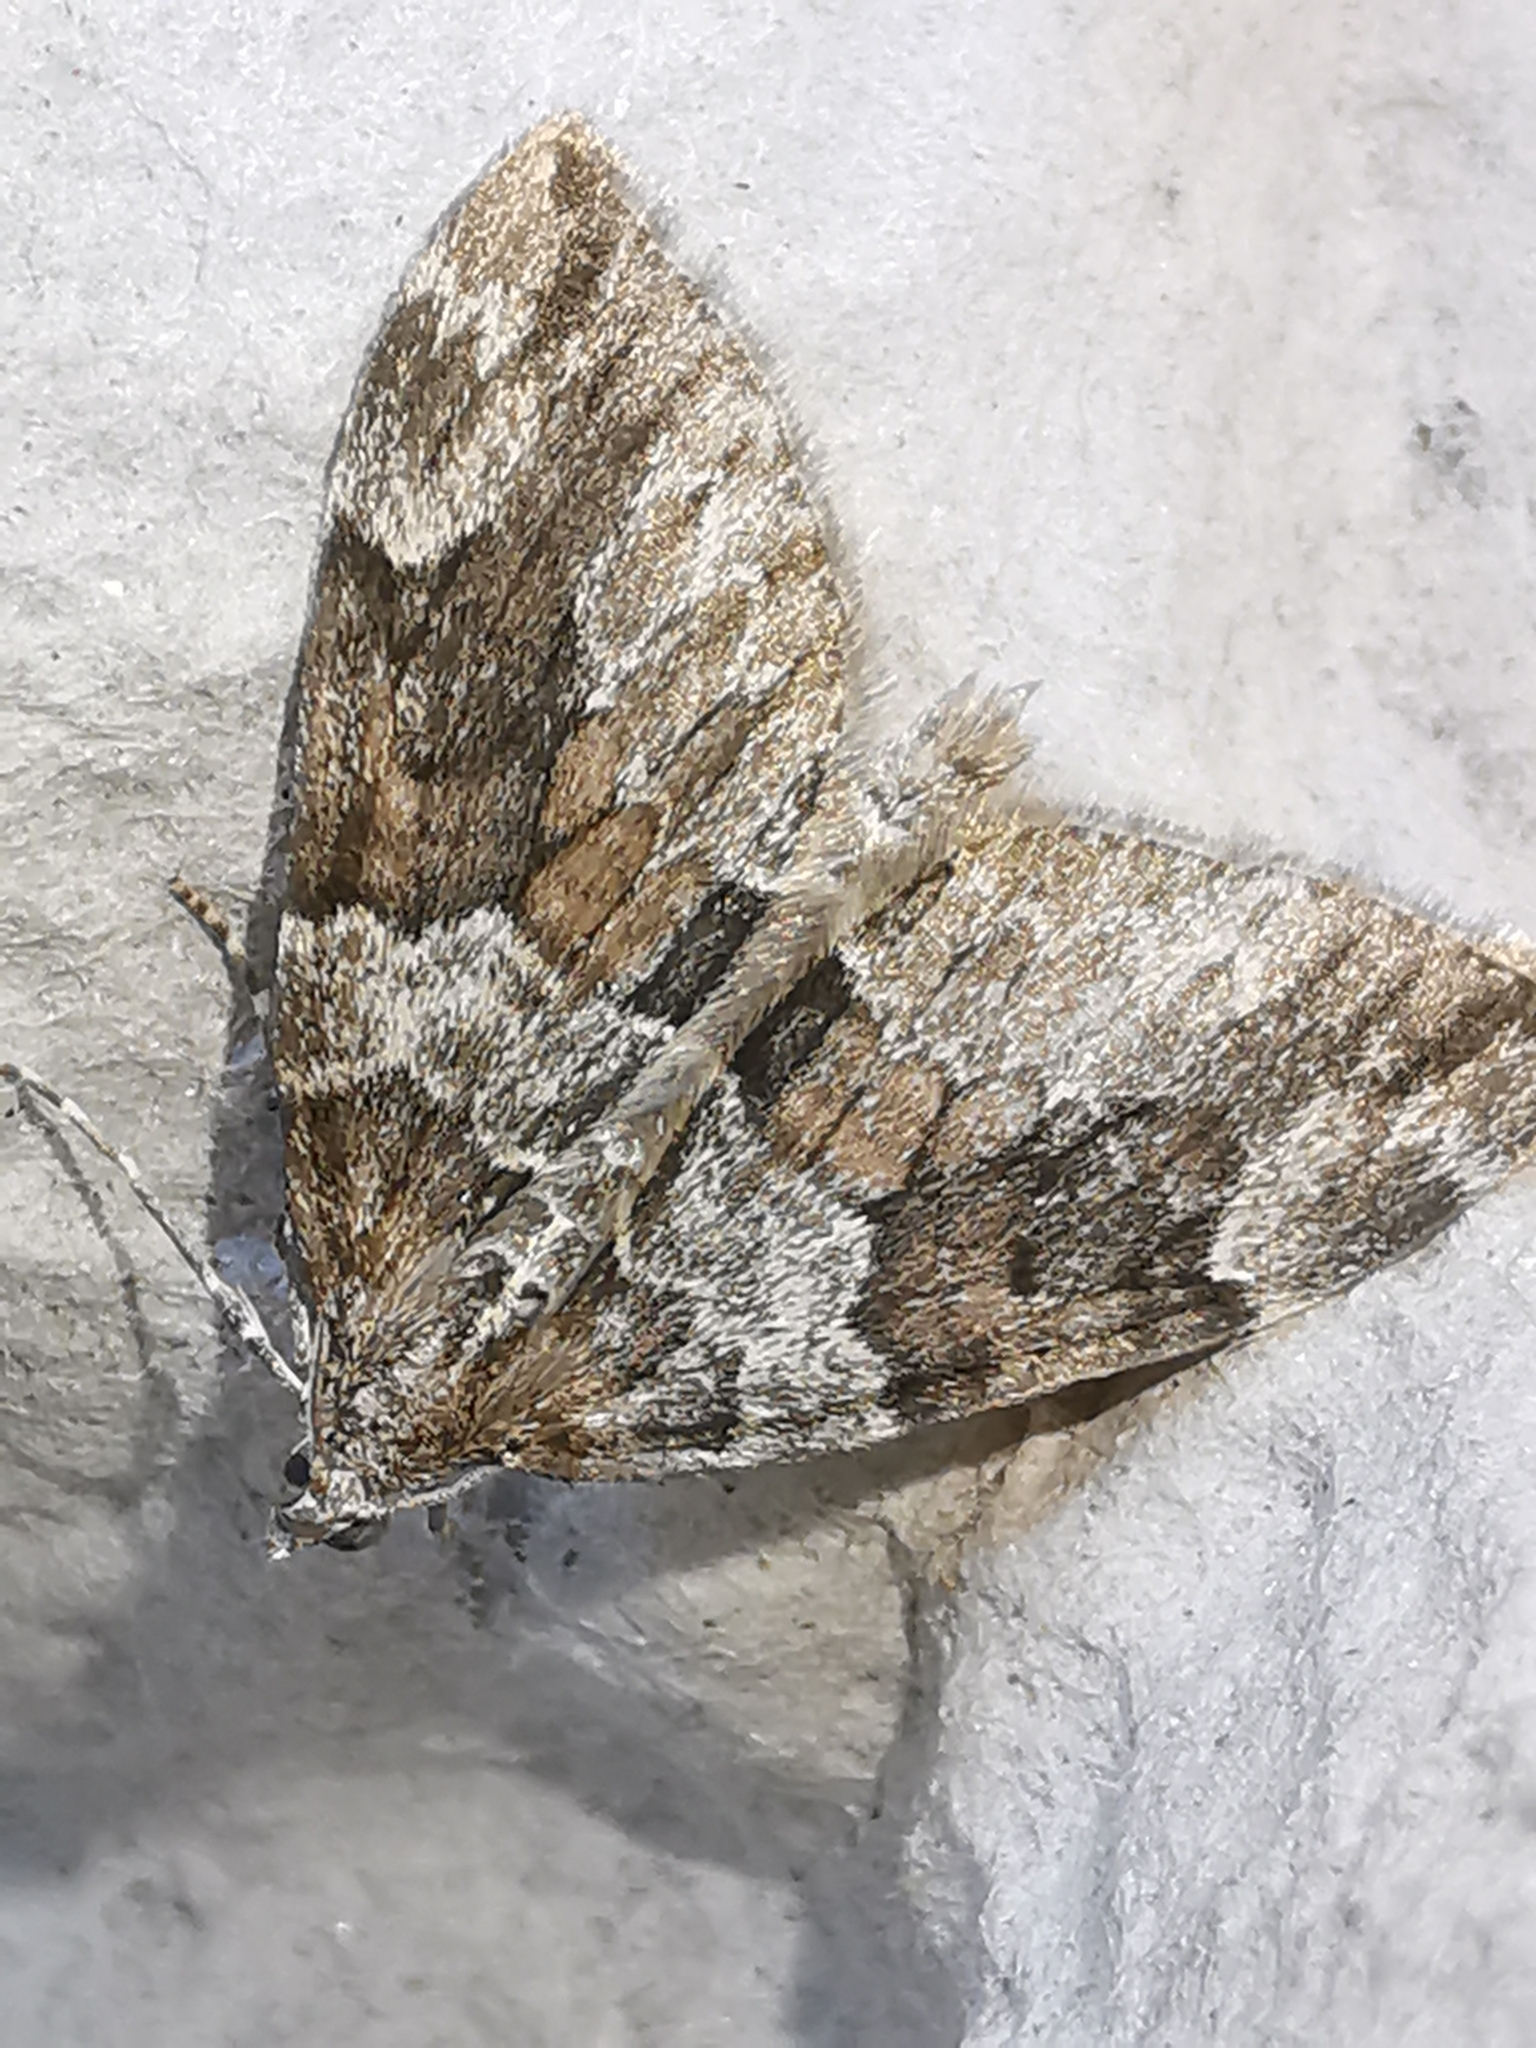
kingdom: Animalia
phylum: Arthropoda
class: Insecta
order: Lepidoptera
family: Geometridae
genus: Thera
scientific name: Thera britannica
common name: Spruce carpet
